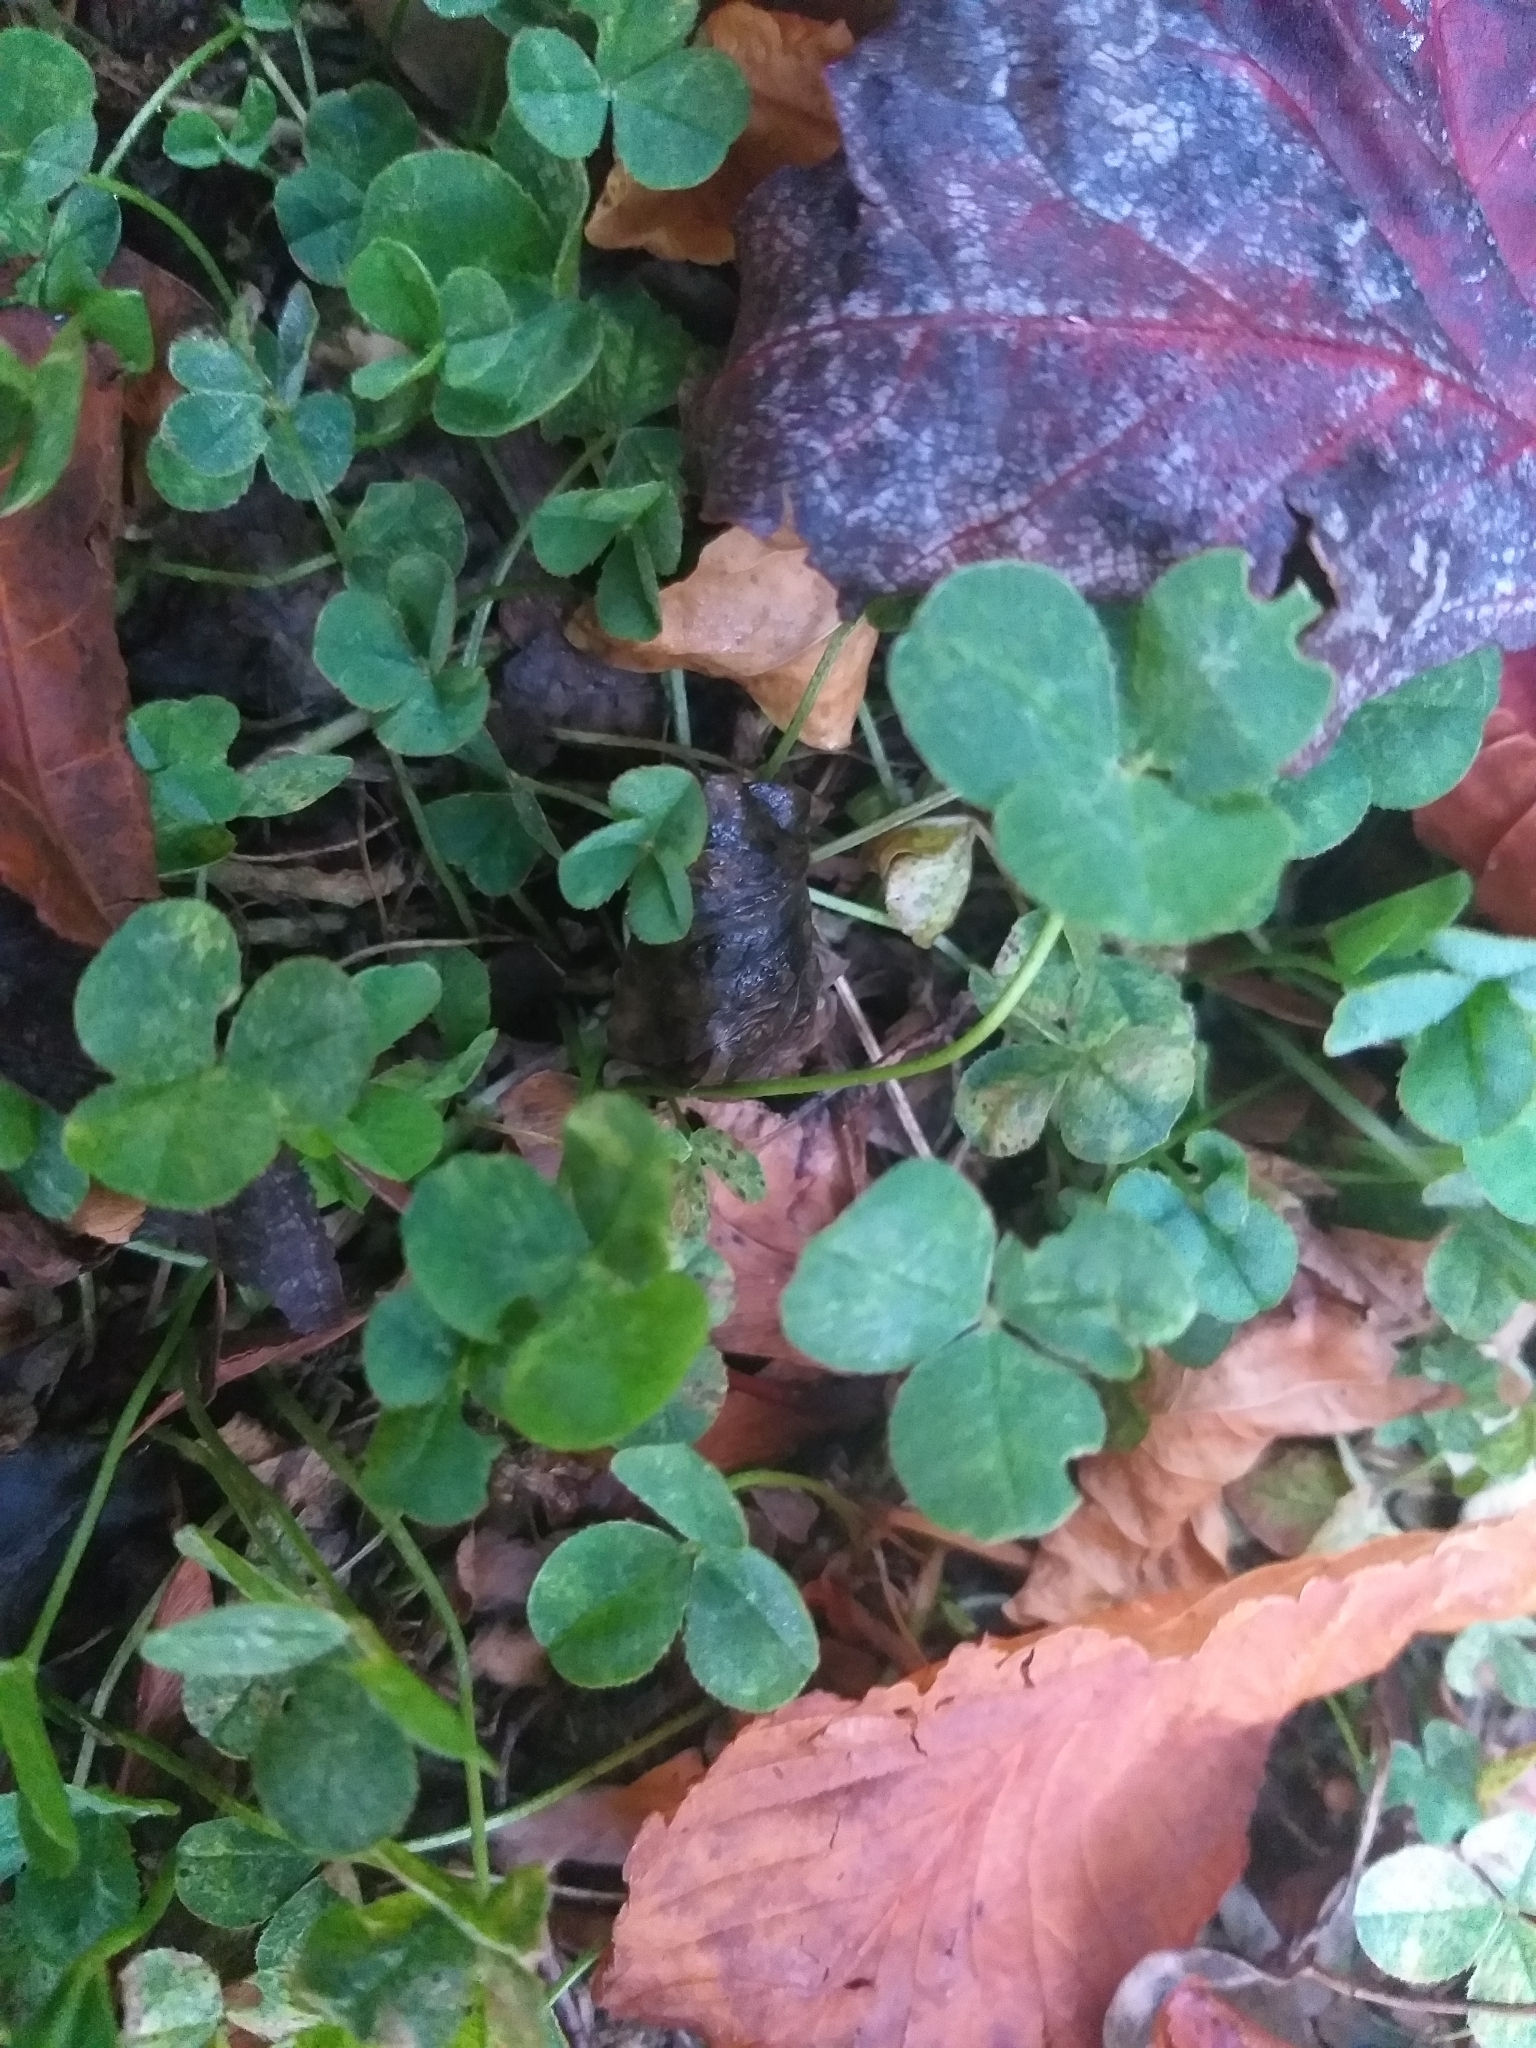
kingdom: Plantae
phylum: Tracheophyta
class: Magnoliopsida
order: Fabales
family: Fabaceae
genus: Trifolium
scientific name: Trifolium repens
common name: White clover
